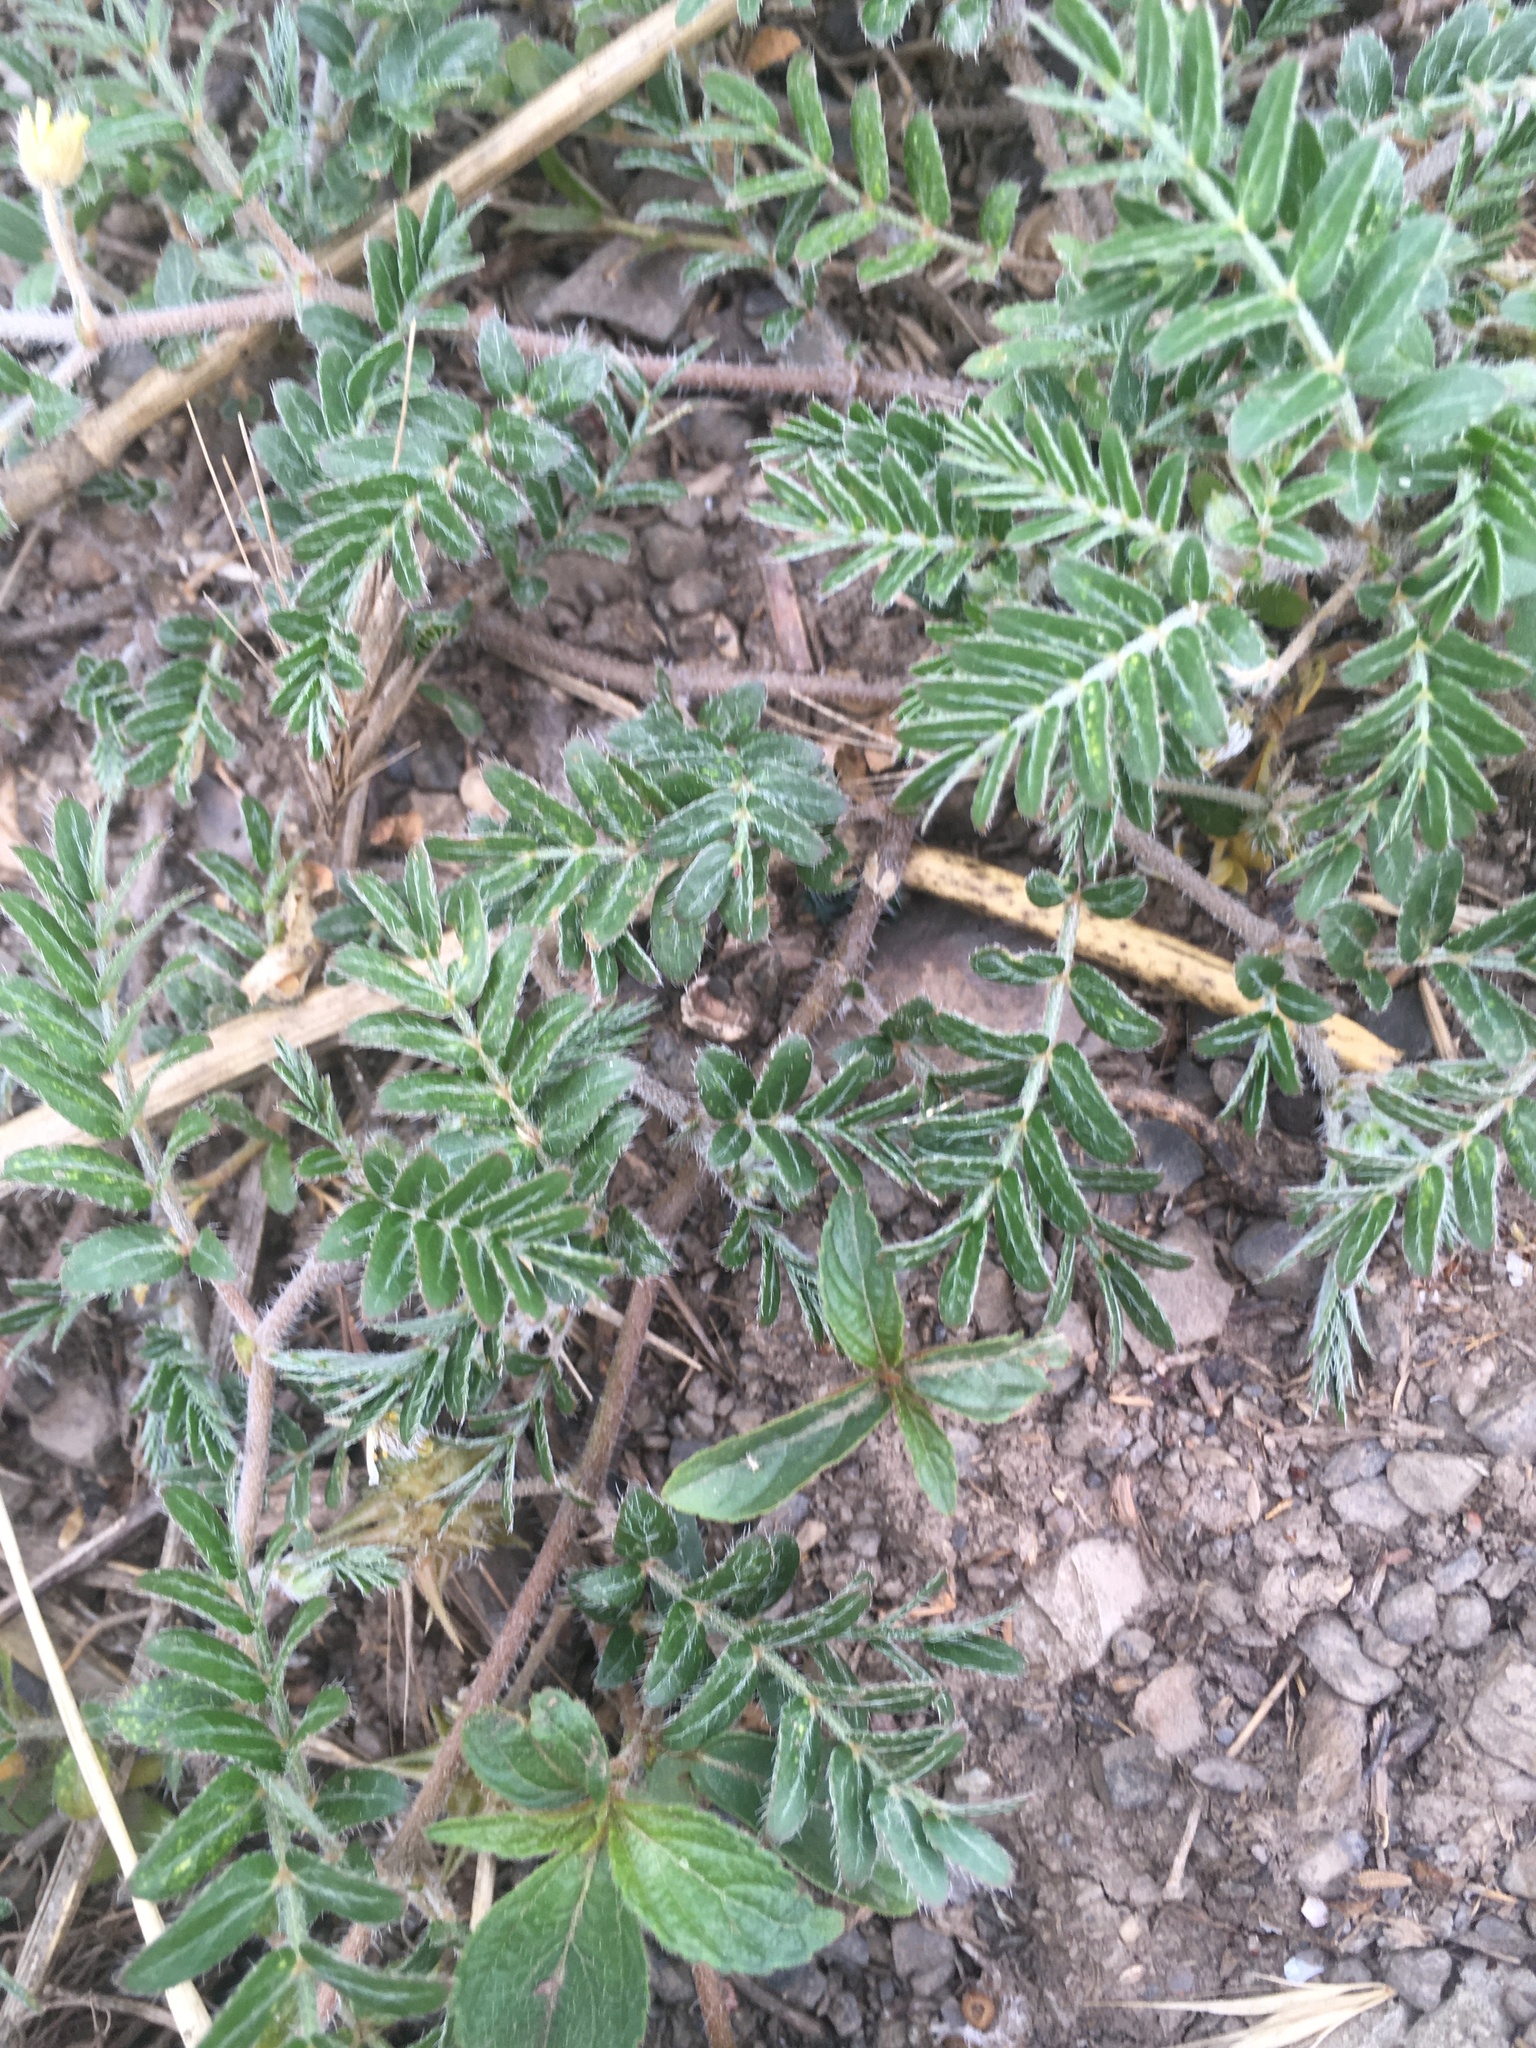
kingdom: Plantae
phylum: Tracheophyta
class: Magnoliopsida
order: Zygophyllales
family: Zygophyllaceae
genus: Tribulus
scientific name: Tribulus terrestris
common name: Puncturevine
